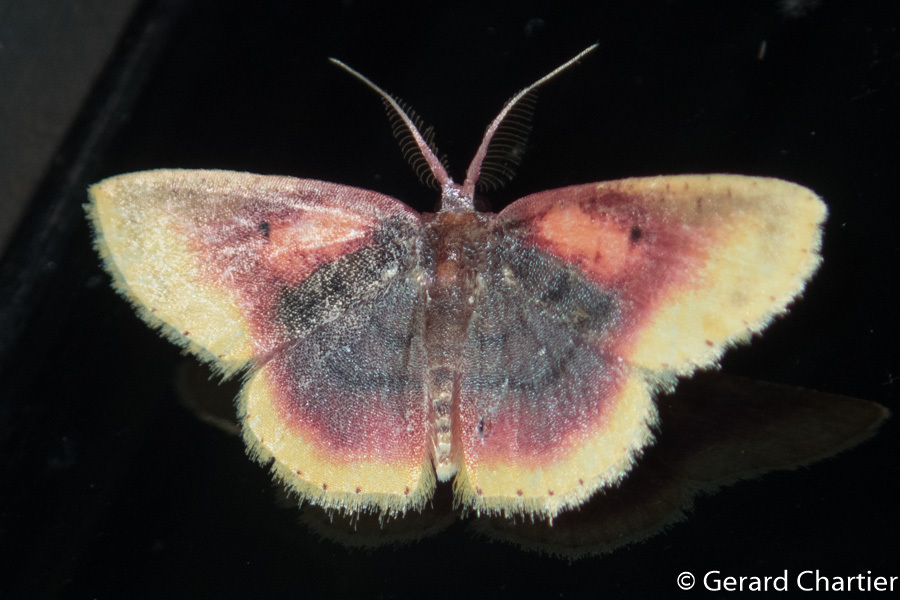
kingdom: Animalia
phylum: Arthropoda
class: Insecta
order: Lepidoptera
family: Geometridae
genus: Chrysocraspeda
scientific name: Chrysocraspeda dysmothauma
